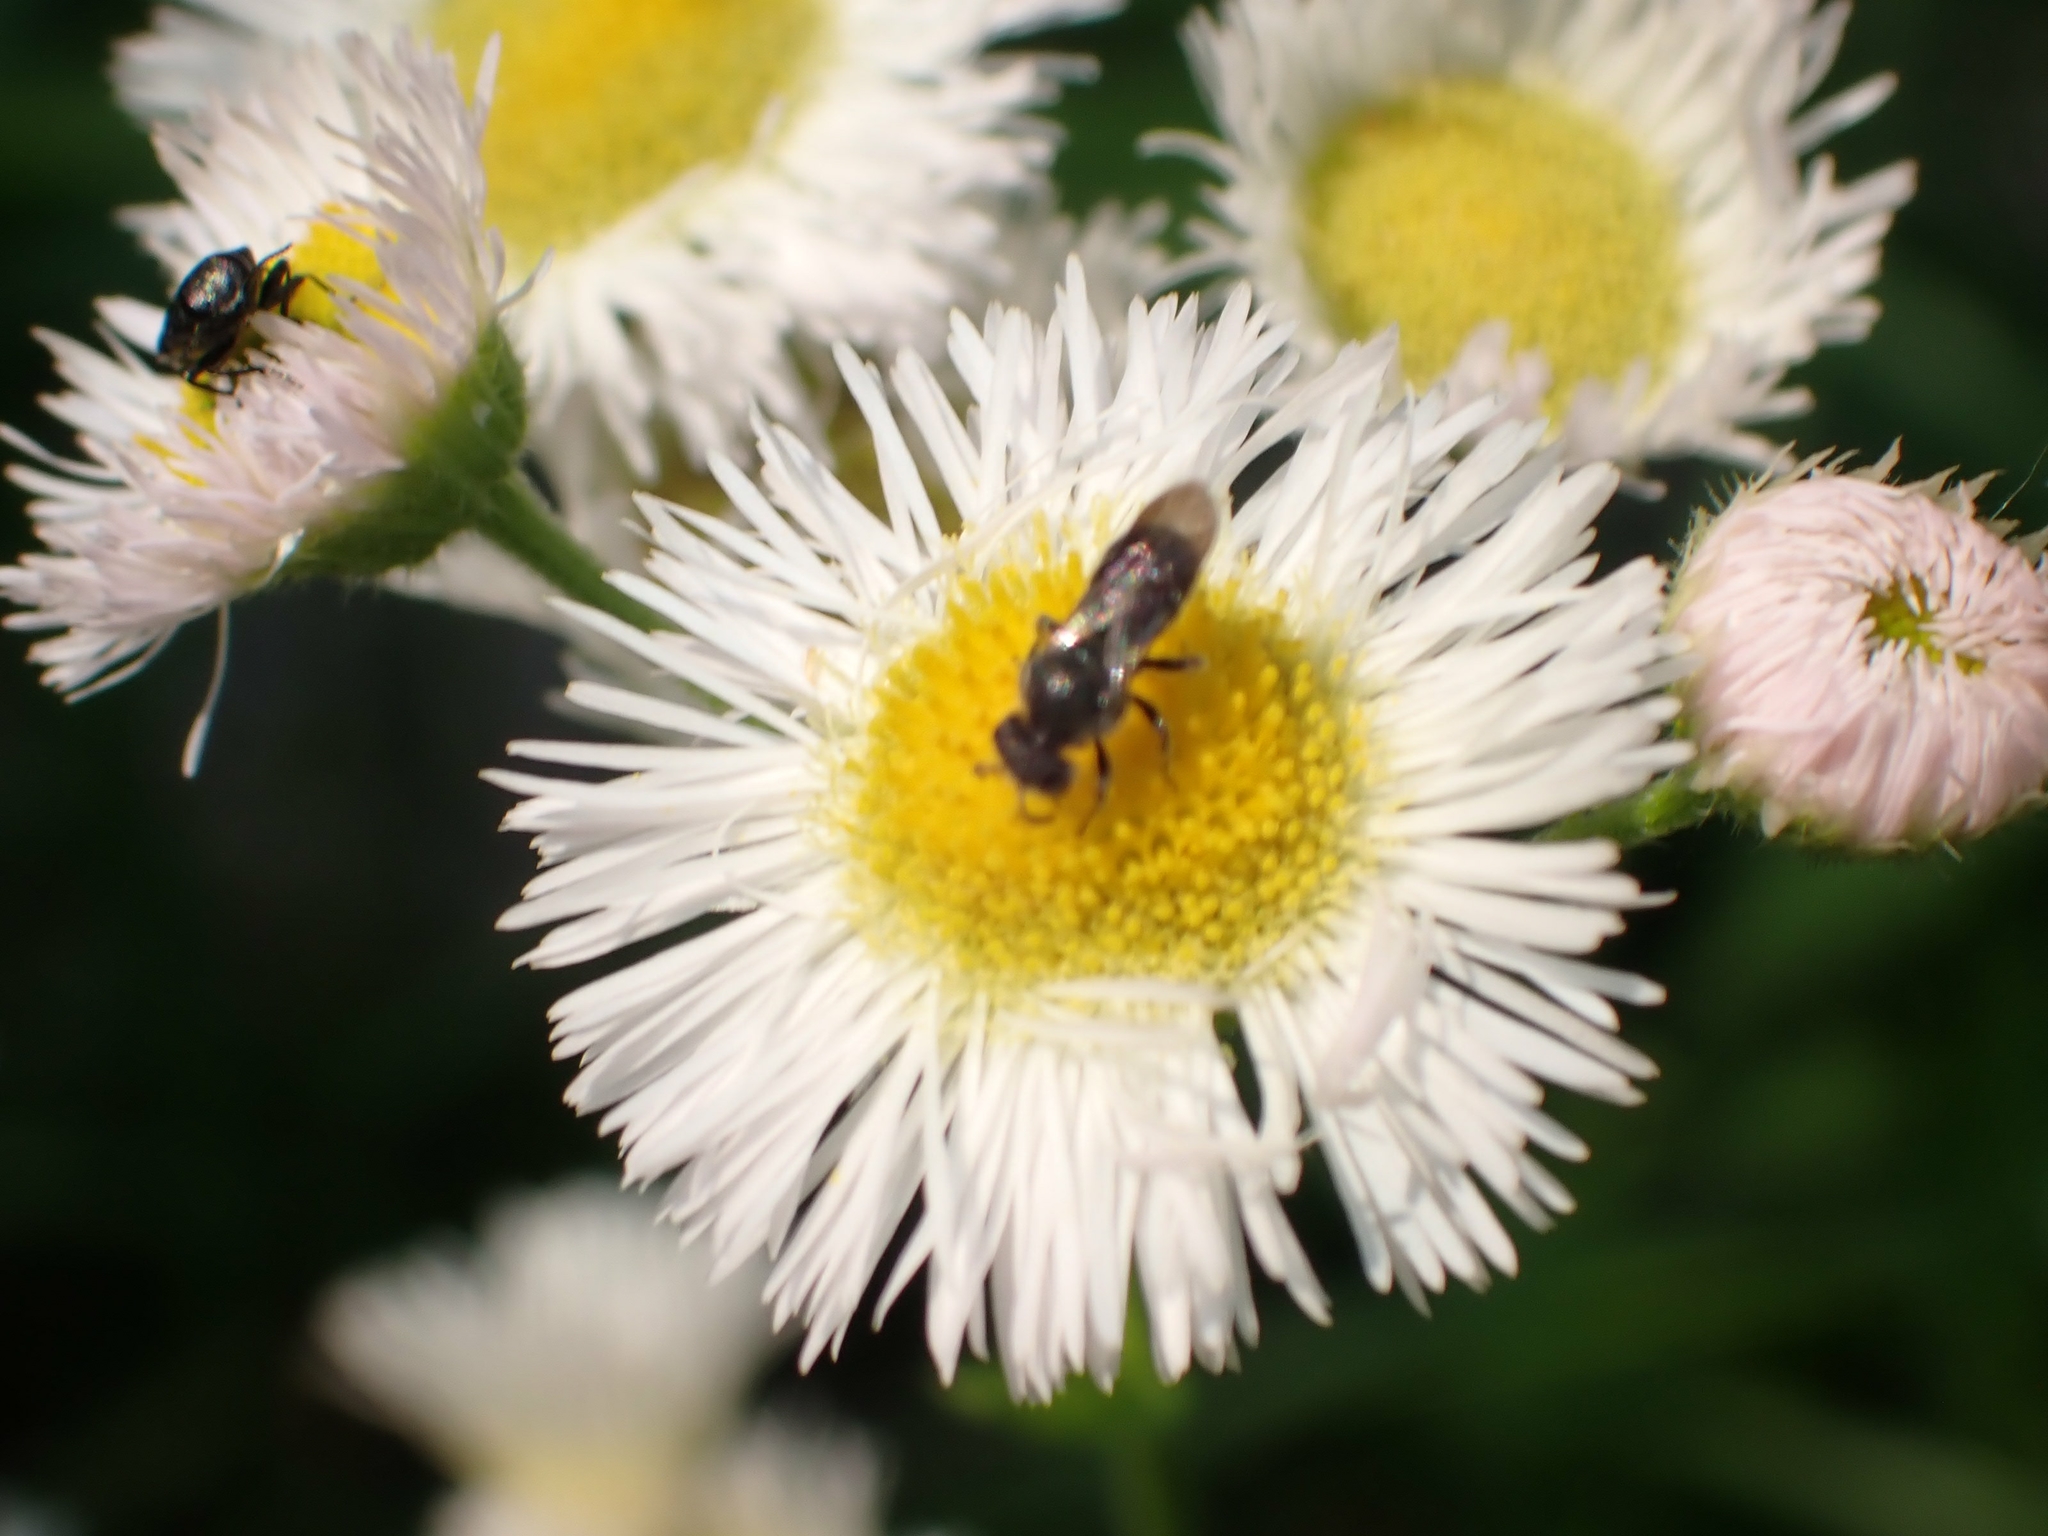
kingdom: Plantae
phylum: Tracheophyta
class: Magnoliopsida
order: Asterales
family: Asteraceae
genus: Erigeron
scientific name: Erigeron philadelphicus
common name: Robin's-plantain
